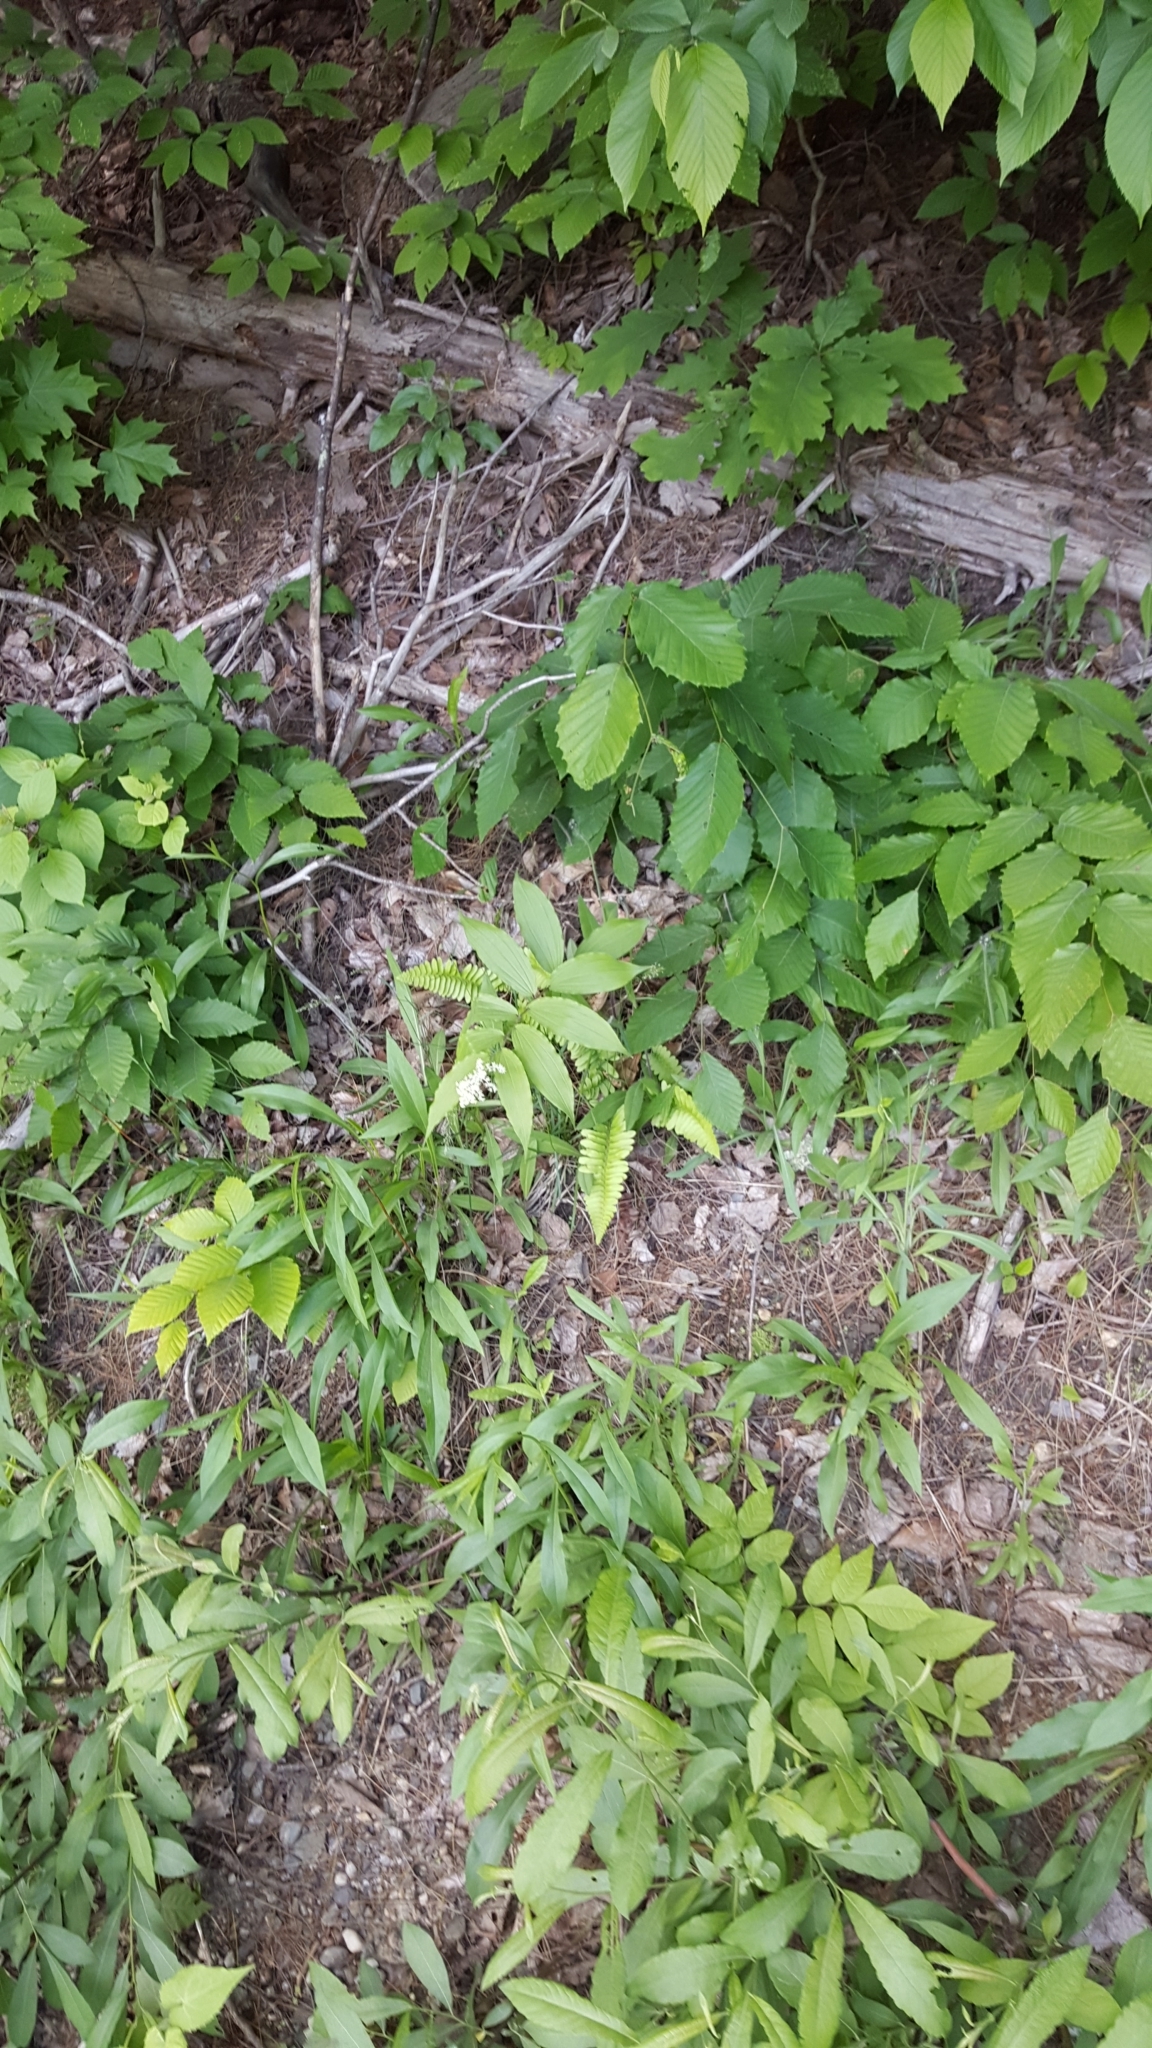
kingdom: Plantae
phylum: Tracheophyta
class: Liliopsida
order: Asparagales
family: Asparagaceae
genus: Maianthemum
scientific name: Maianthemum racemosum
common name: False spikenard
